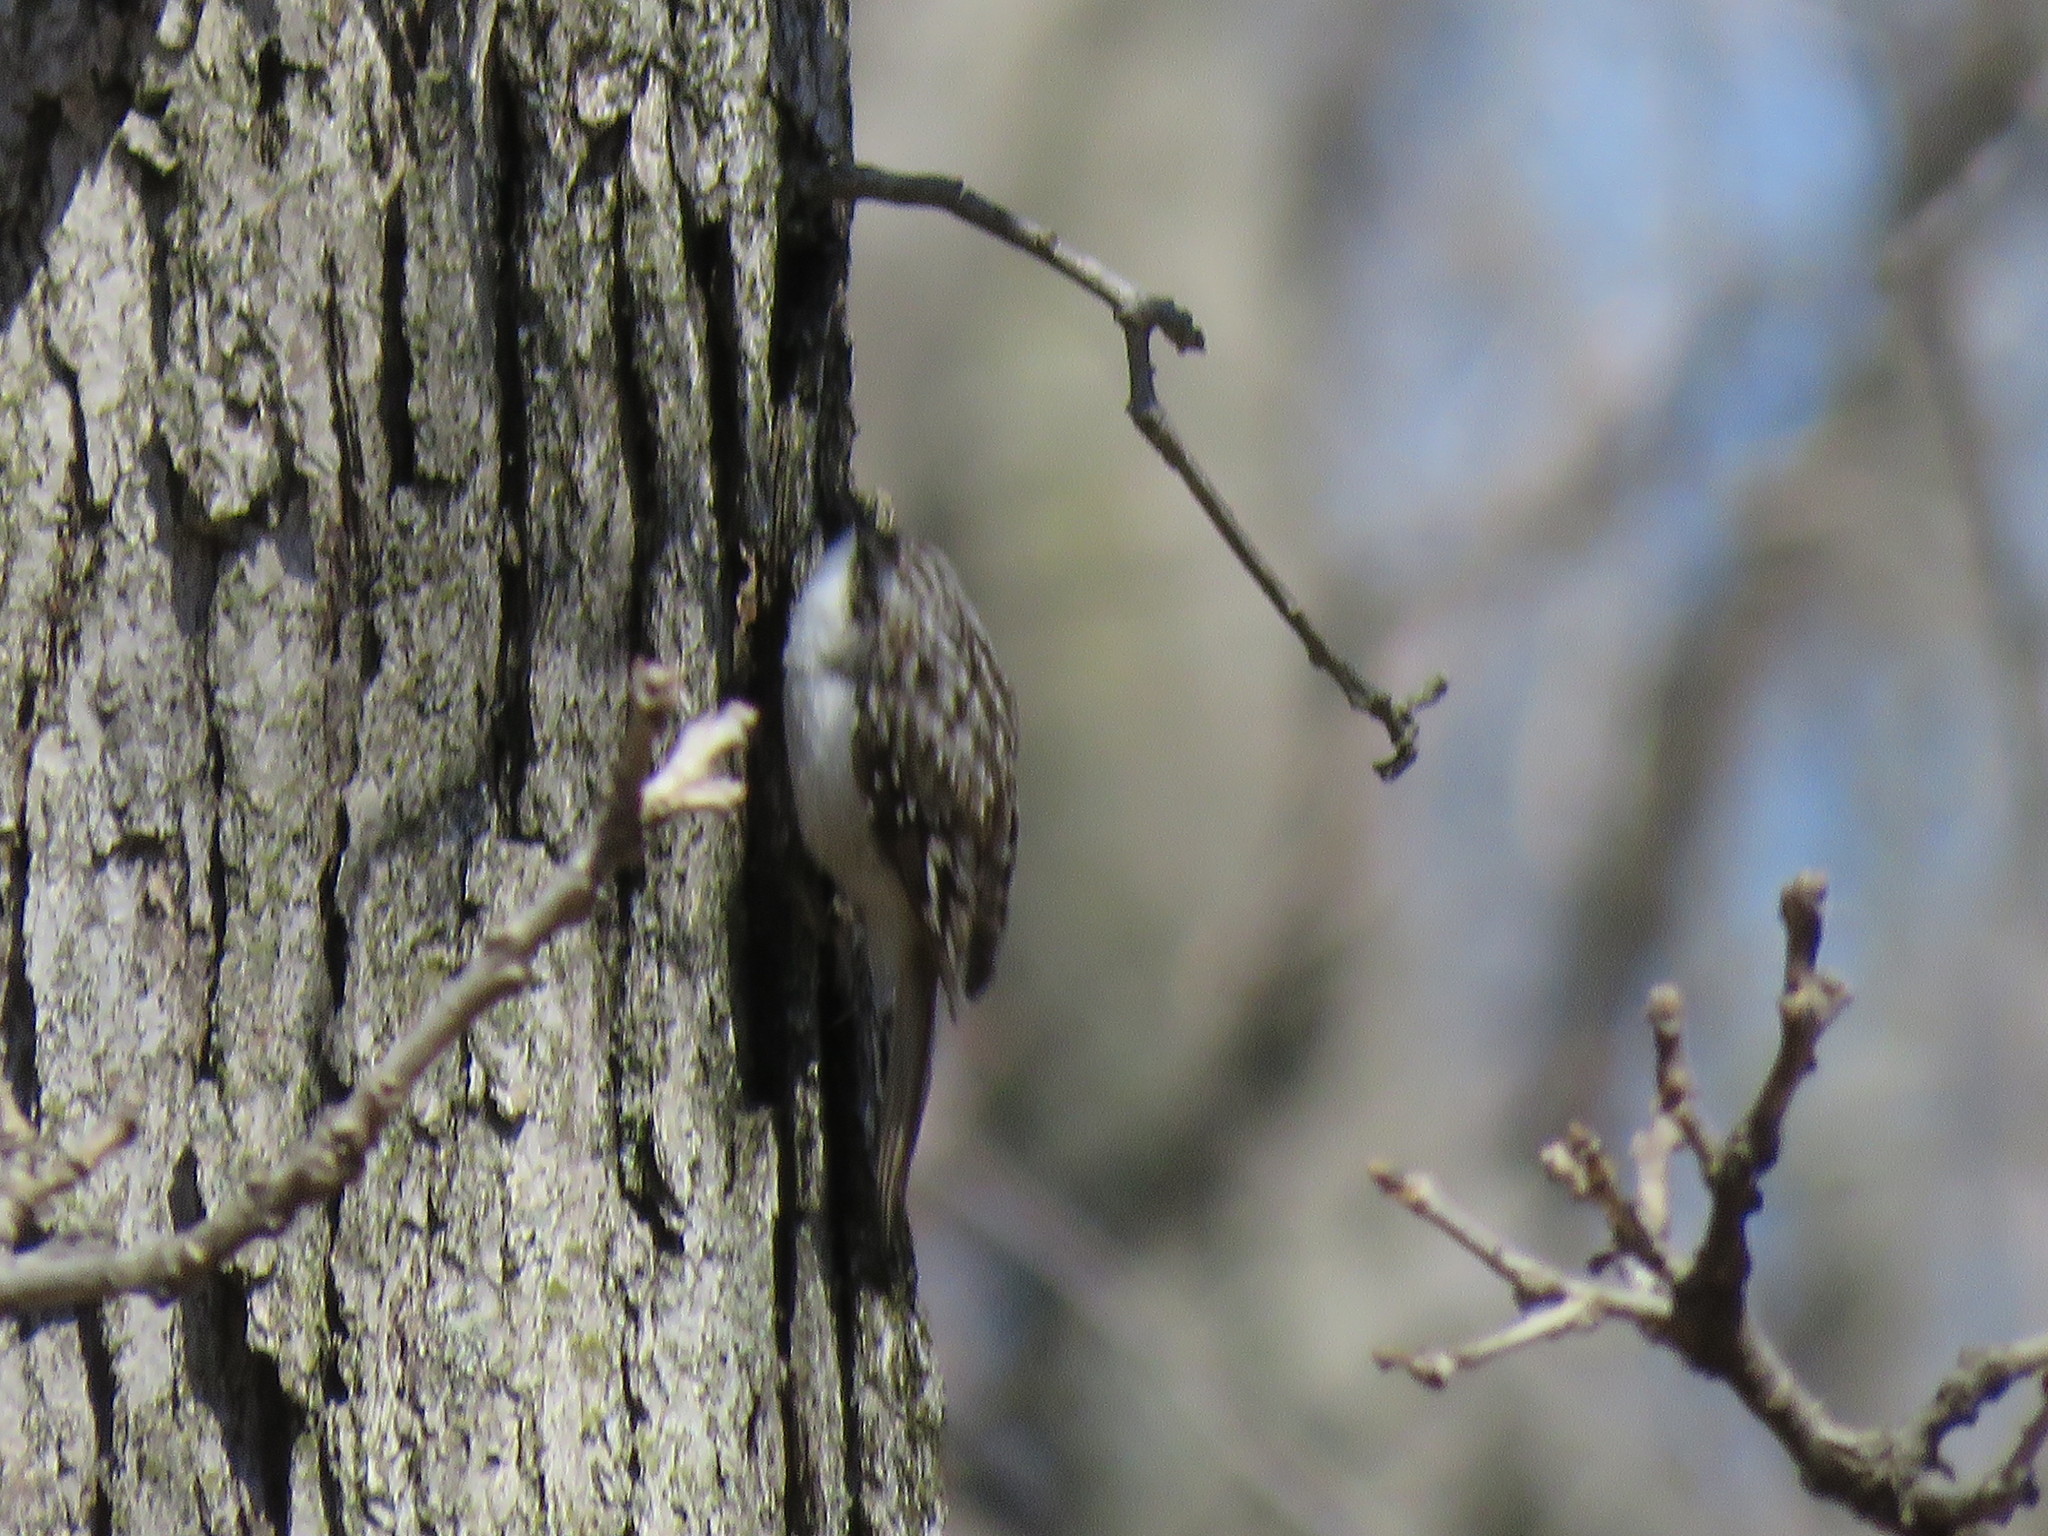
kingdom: Animalia
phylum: Chordata
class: Aves
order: Passeriformes
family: Certhiidae
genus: Certhia
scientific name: Certhia americana
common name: Brown creeper
